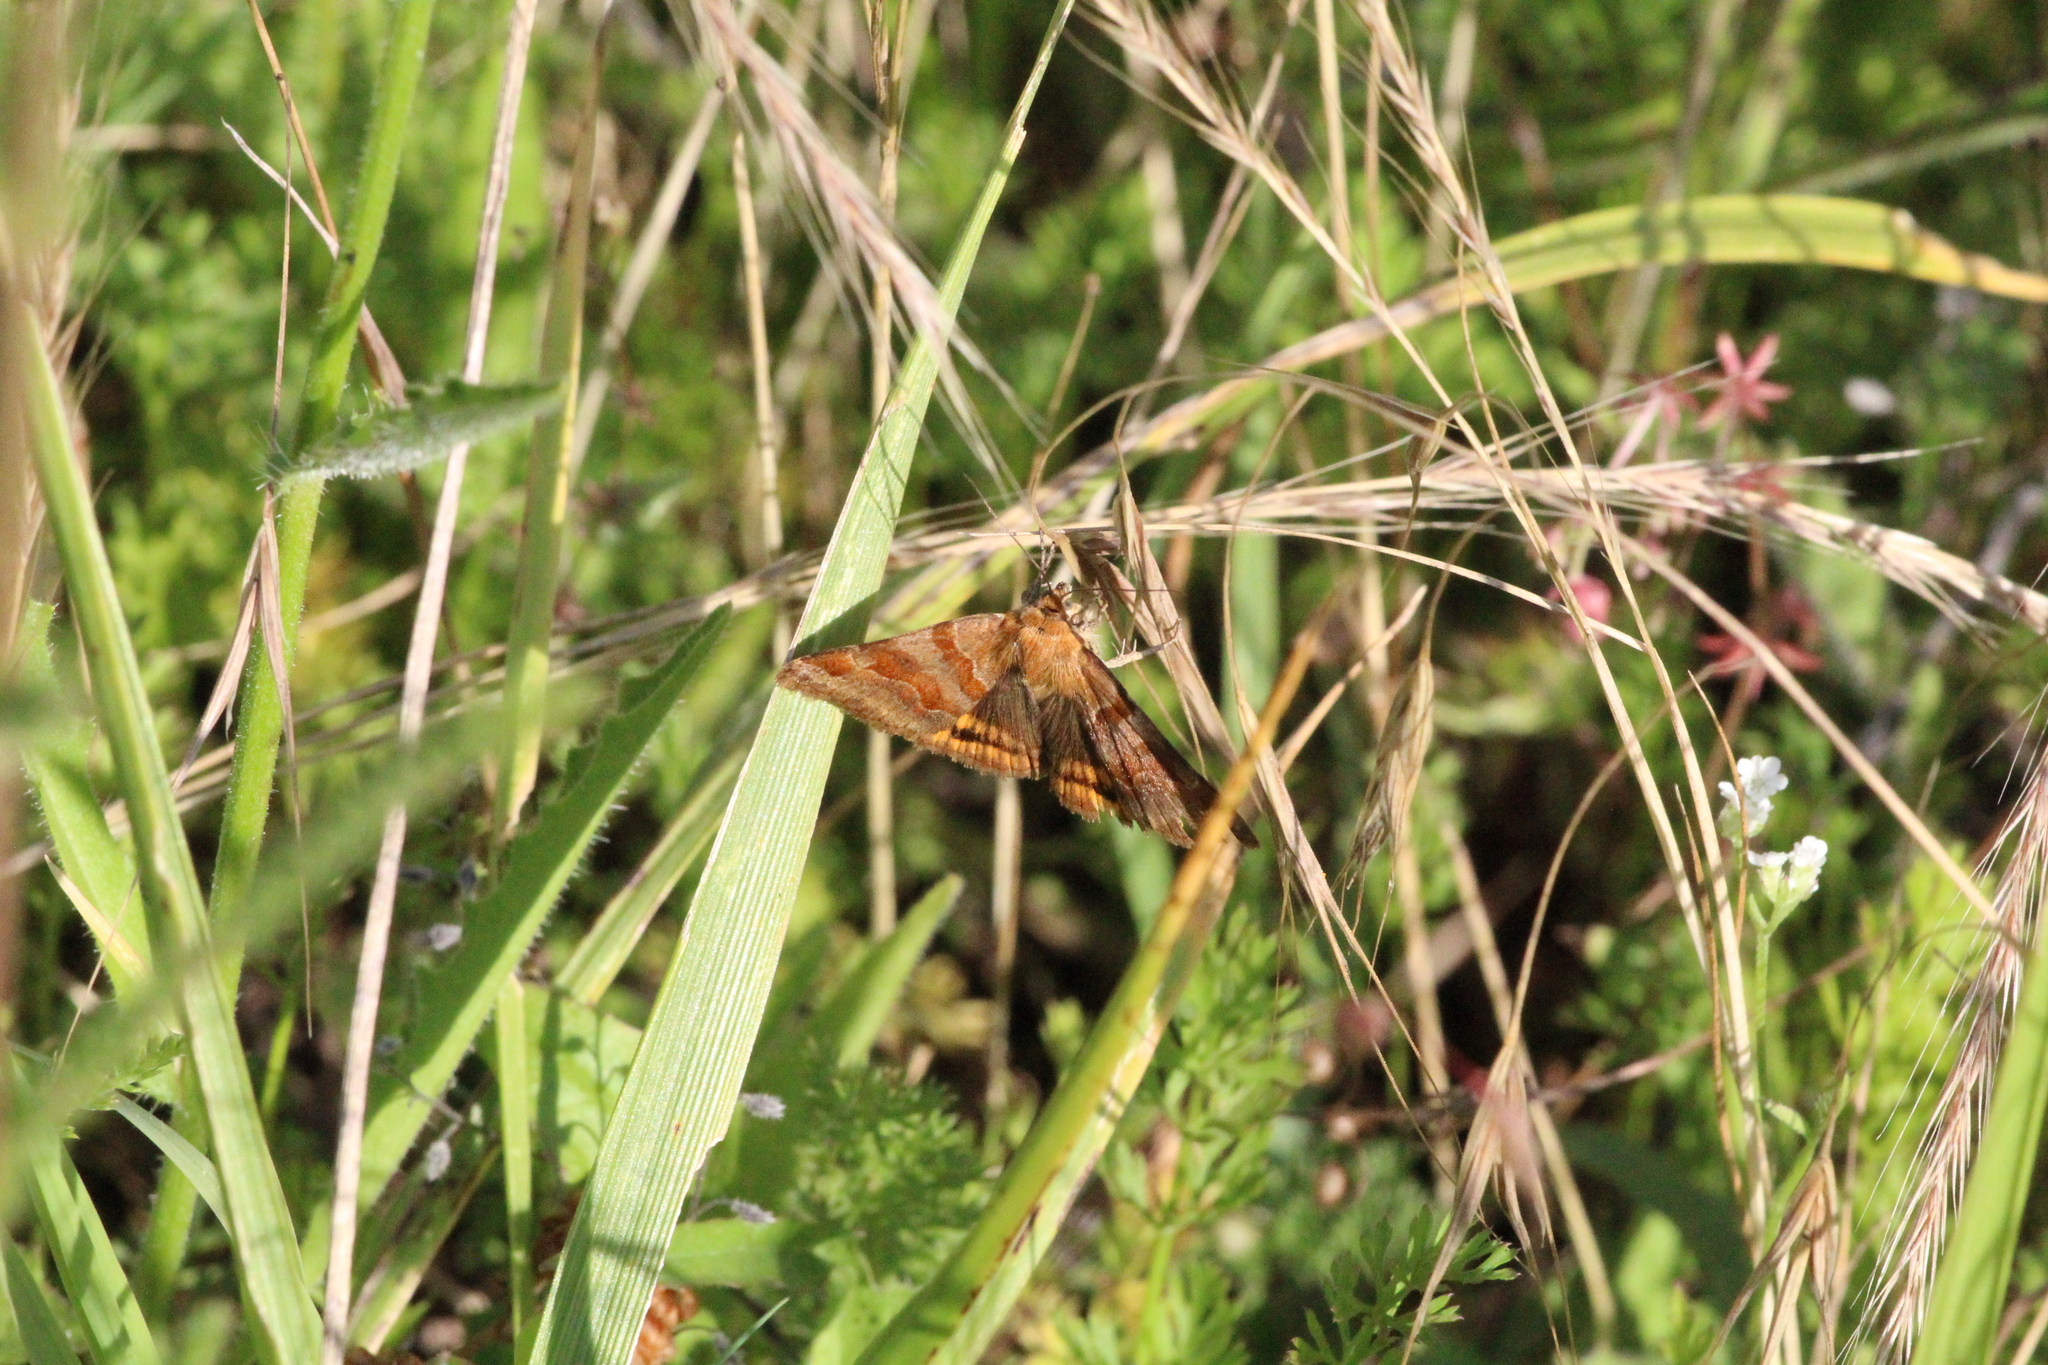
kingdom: Animalia
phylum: Arthropoda
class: Insecta
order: Lepidoptera
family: Erebidae
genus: Euclidia
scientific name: Euclidia glyphica
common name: Burnet companion
